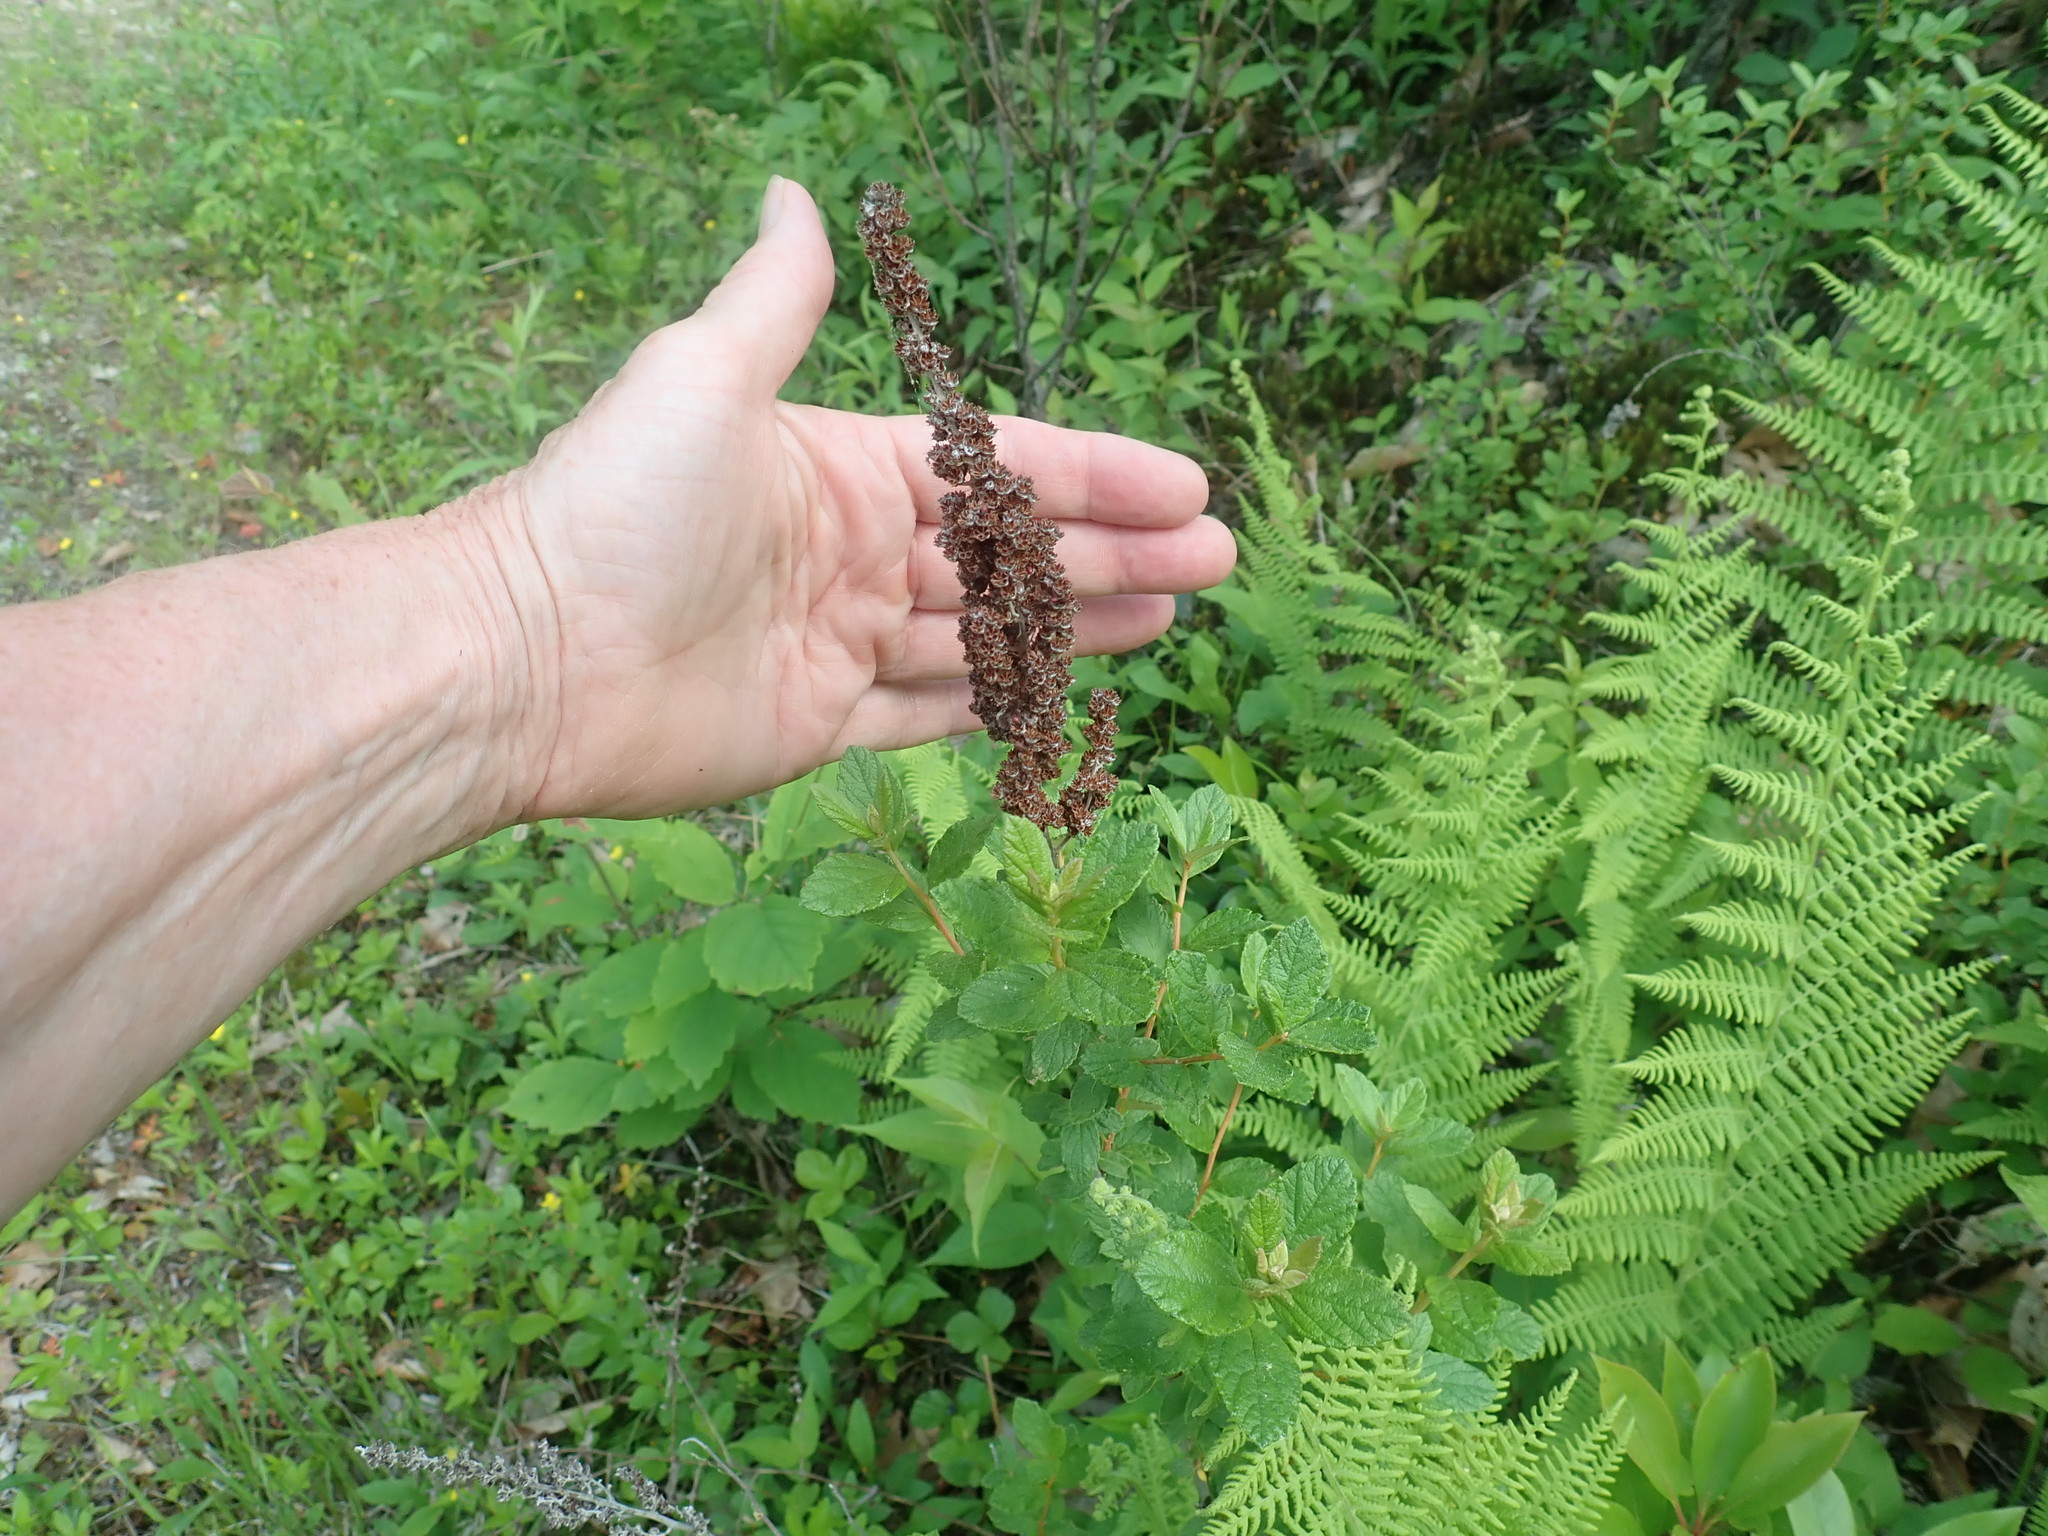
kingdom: Plantae
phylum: Tracheophyta
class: Magnoliopsida
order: Rosales
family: Rosaceae
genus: Spiraea
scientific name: Spiraea tomentosa
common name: Hardhack
